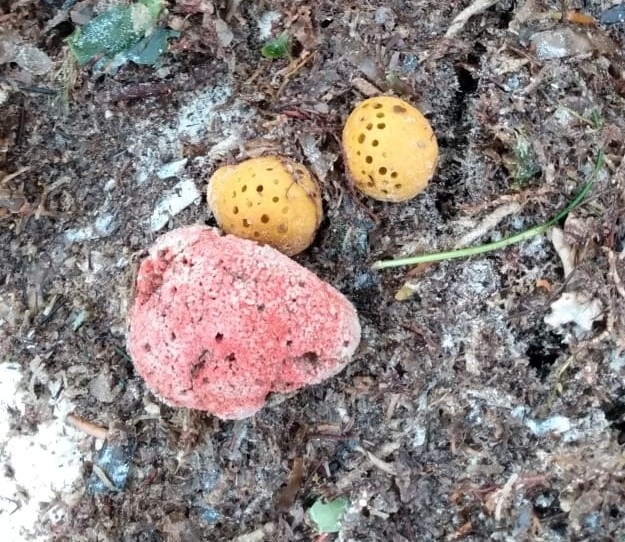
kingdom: Animalia
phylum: Porifera
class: Demospongiae
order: Axinellida
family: Axinellidae
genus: Dragmacidon
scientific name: Dragmacidon lunaecharta
